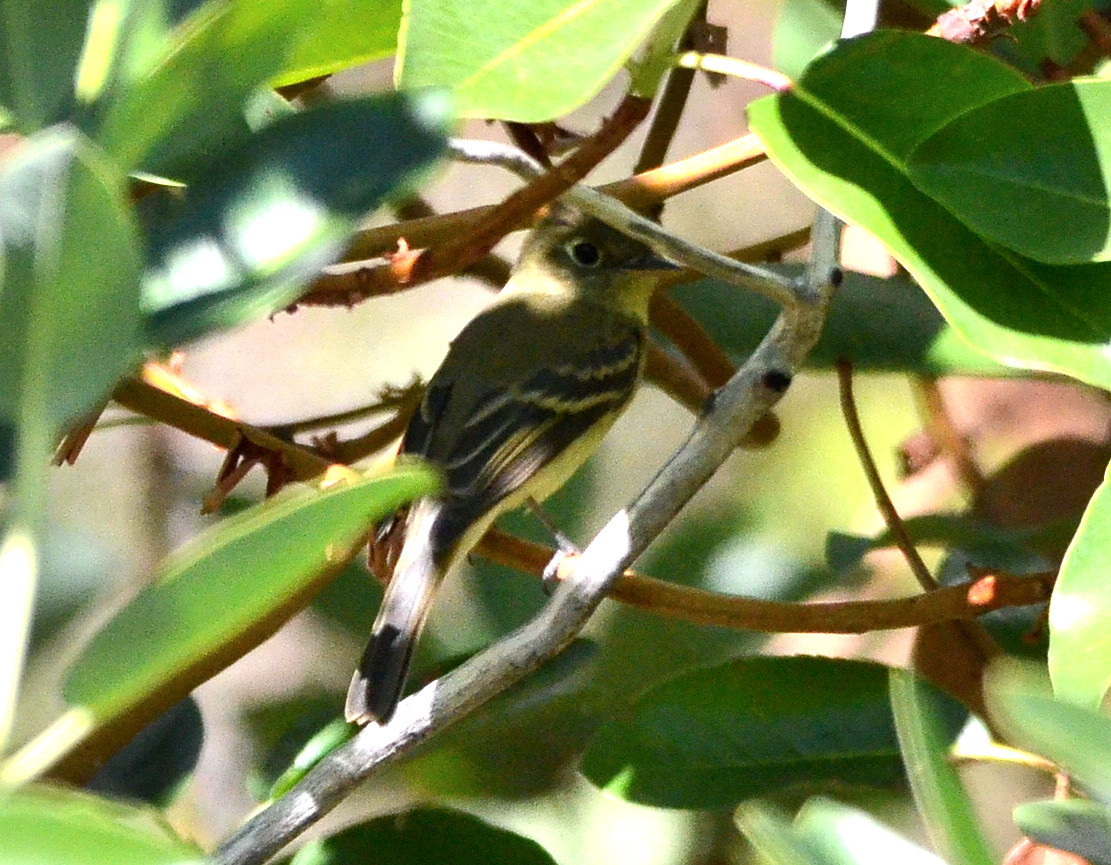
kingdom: Animalia
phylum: Chordata
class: Aves
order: Passeriformes
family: Tyrannidae
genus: Empidonax
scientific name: Empidonax difficilis
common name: Pacific-slope flycatcher
